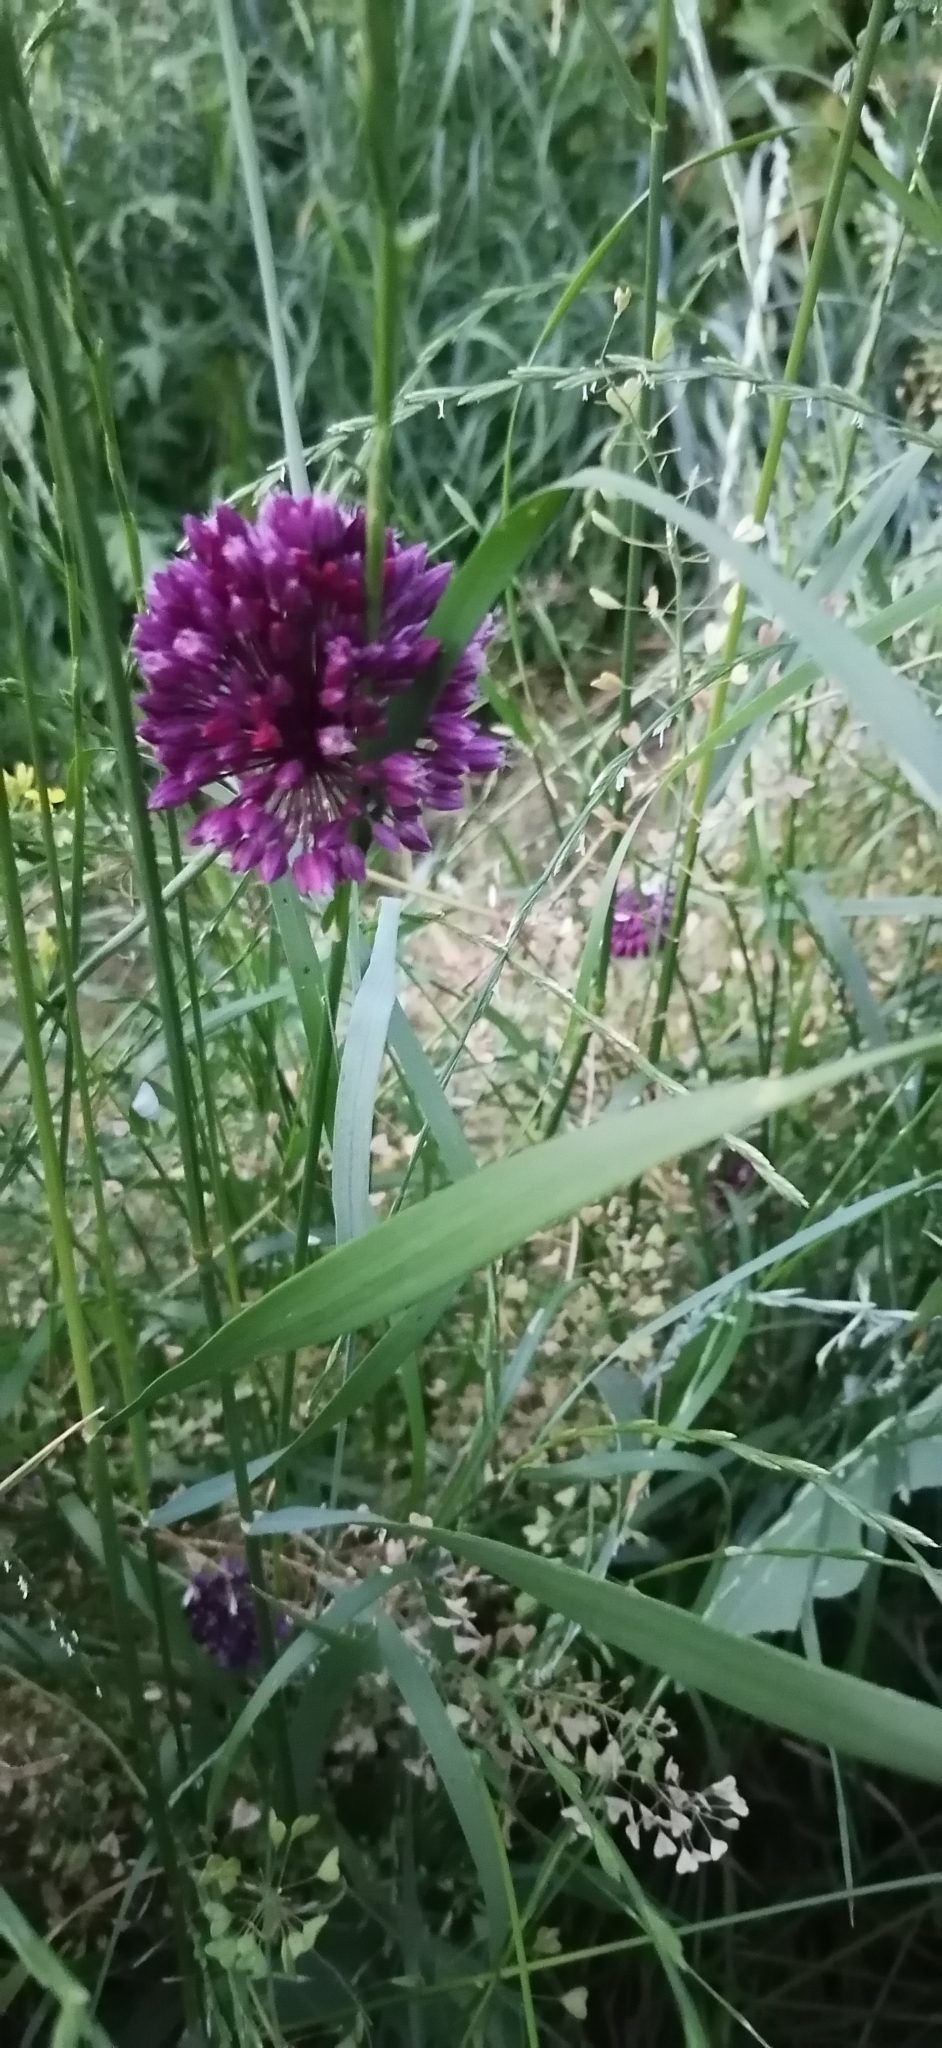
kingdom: Plantae
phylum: Tracheophyta
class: Liliopsida
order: Asparagales
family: Amaryllidaceae
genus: Allium
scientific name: Allium rotundum
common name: Sand leek
